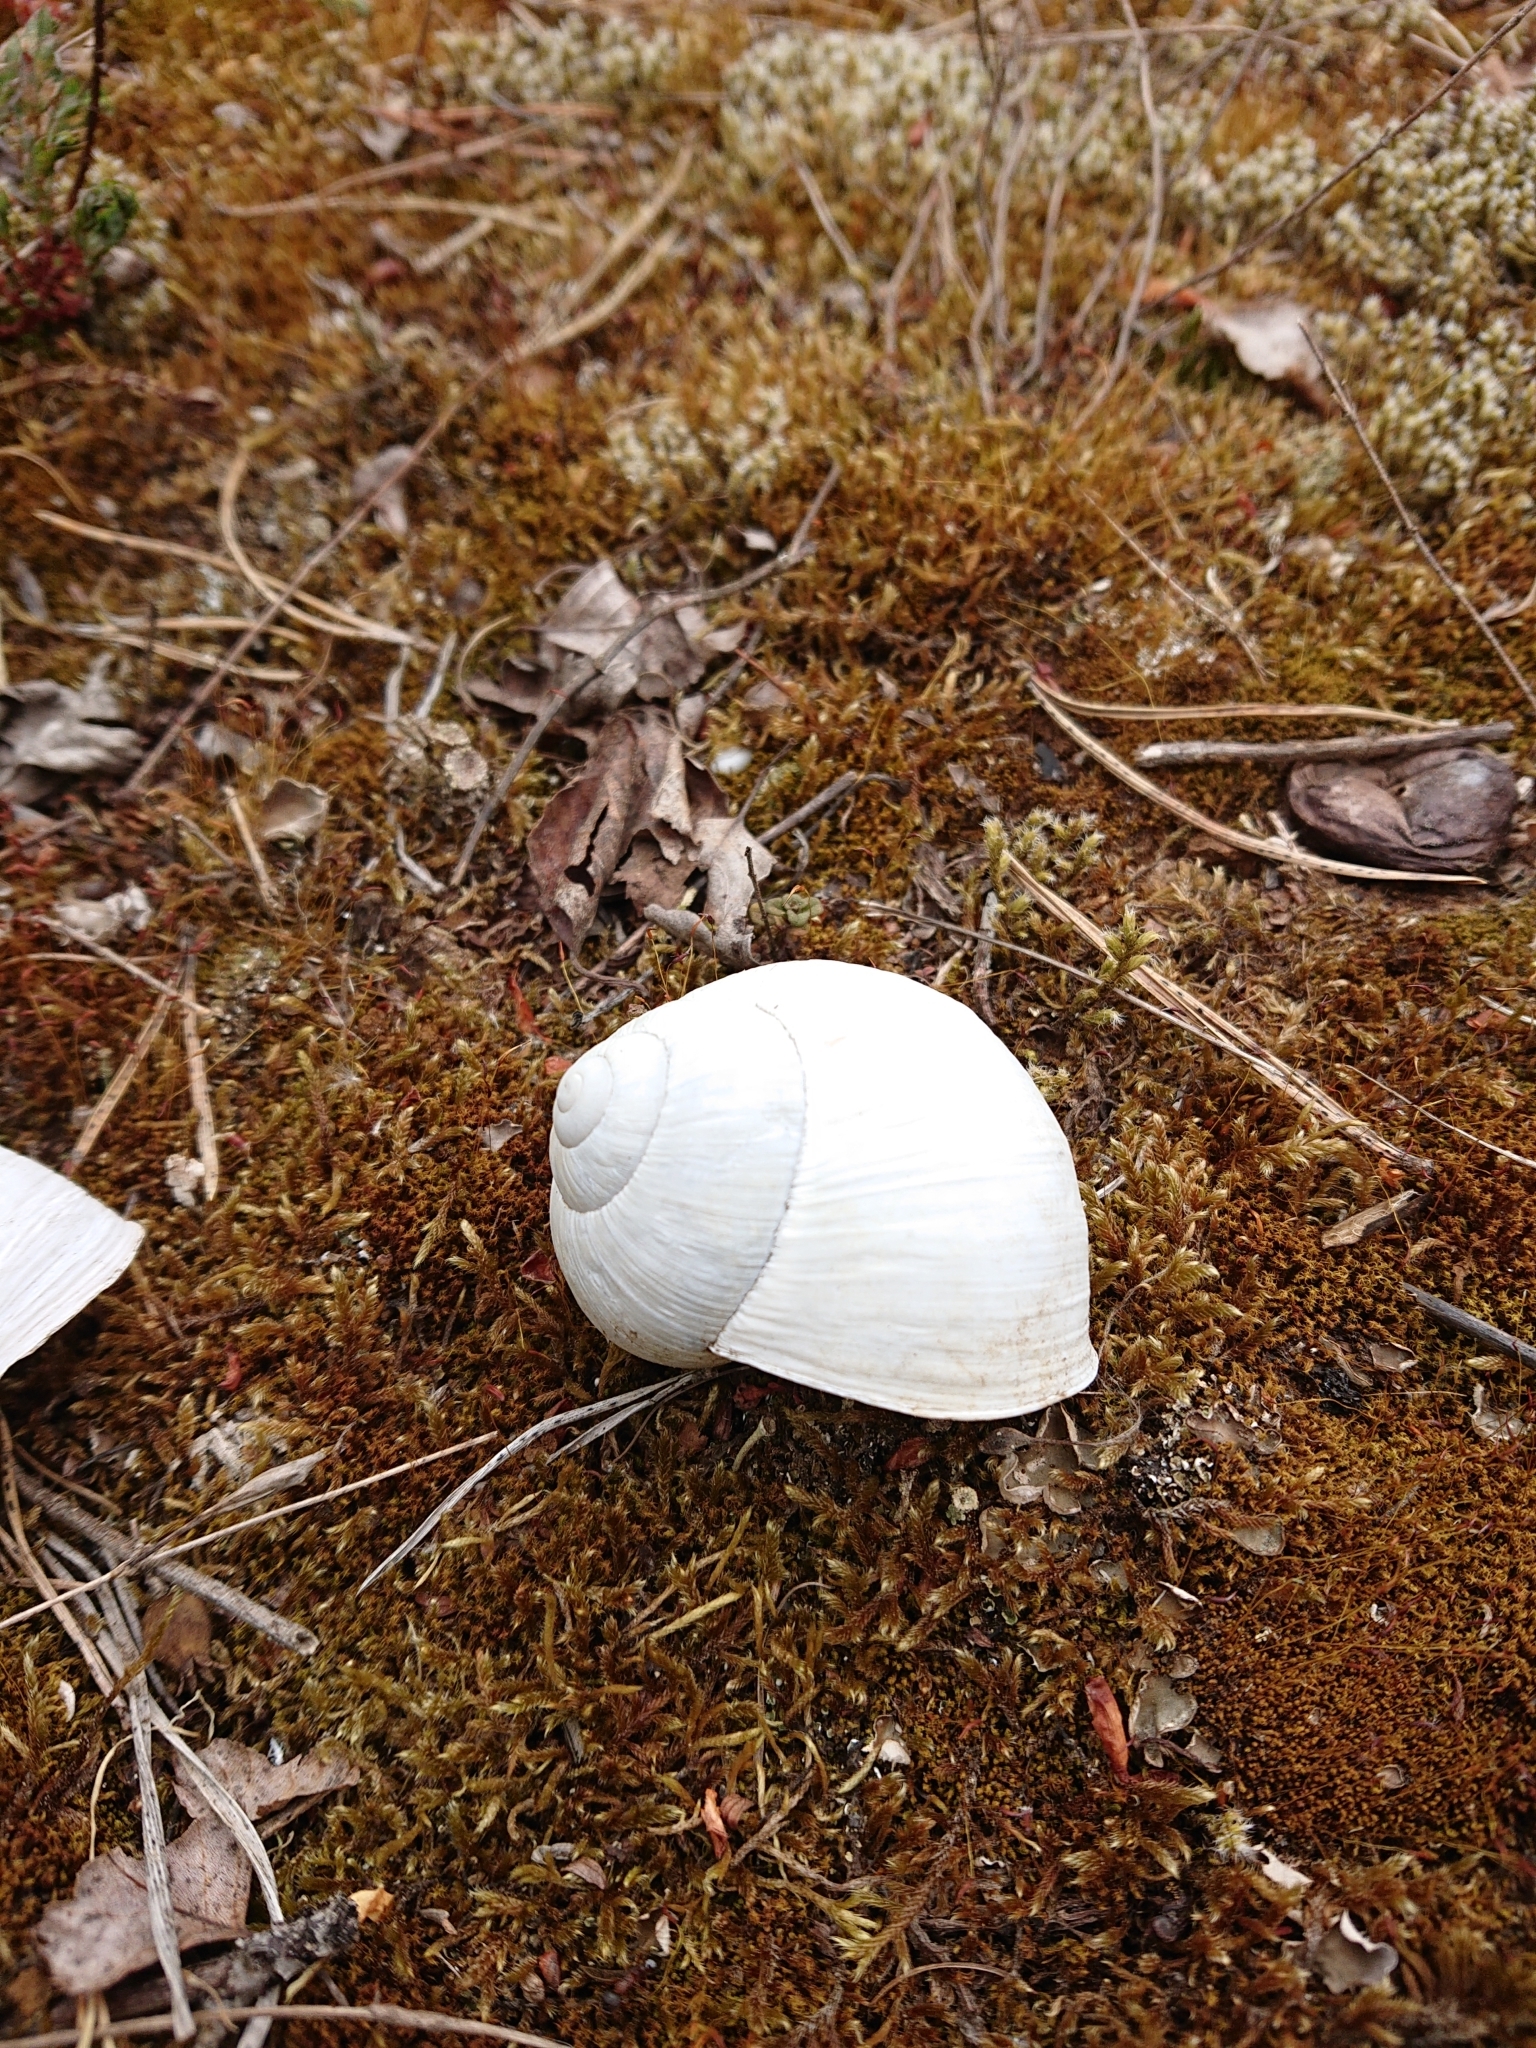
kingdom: Animalia
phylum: Mollusca
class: Gastropoda
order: Stylommatophora
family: Helicidae
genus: Helix
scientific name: Helix pomatia
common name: Roman snail
